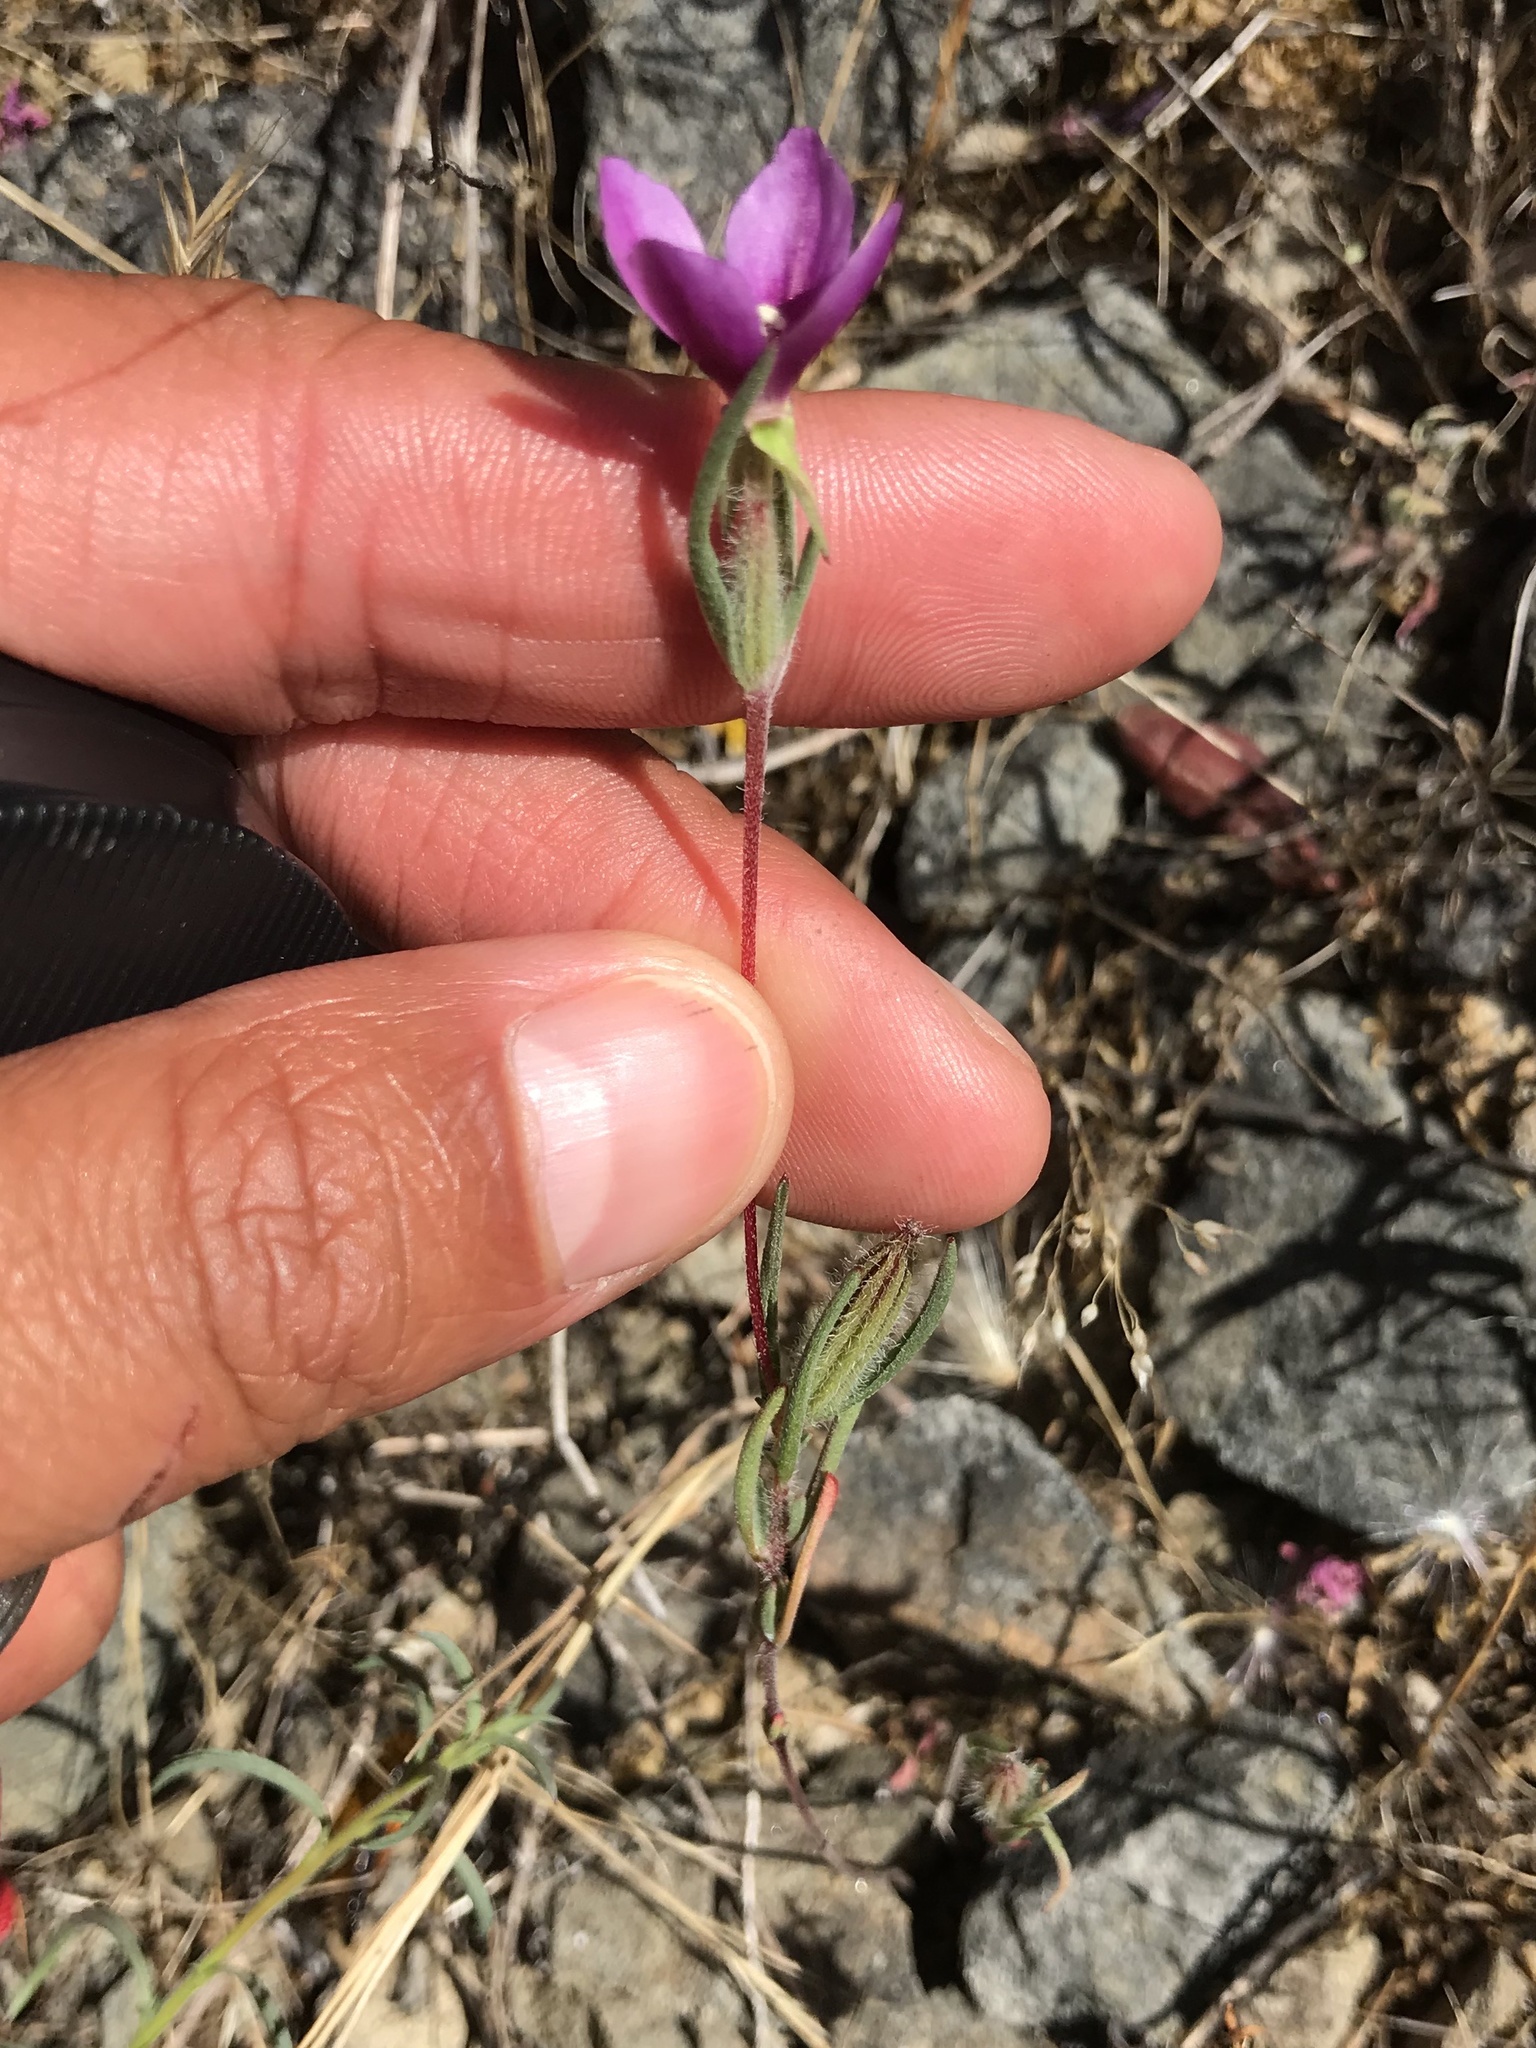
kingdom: Plantae
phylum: Tracheophyta
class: Magnoliopsida
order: Myrtales
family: Onagraceae
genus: Clarkia
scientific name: Clarkia purpurea
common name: Purple clarkia
